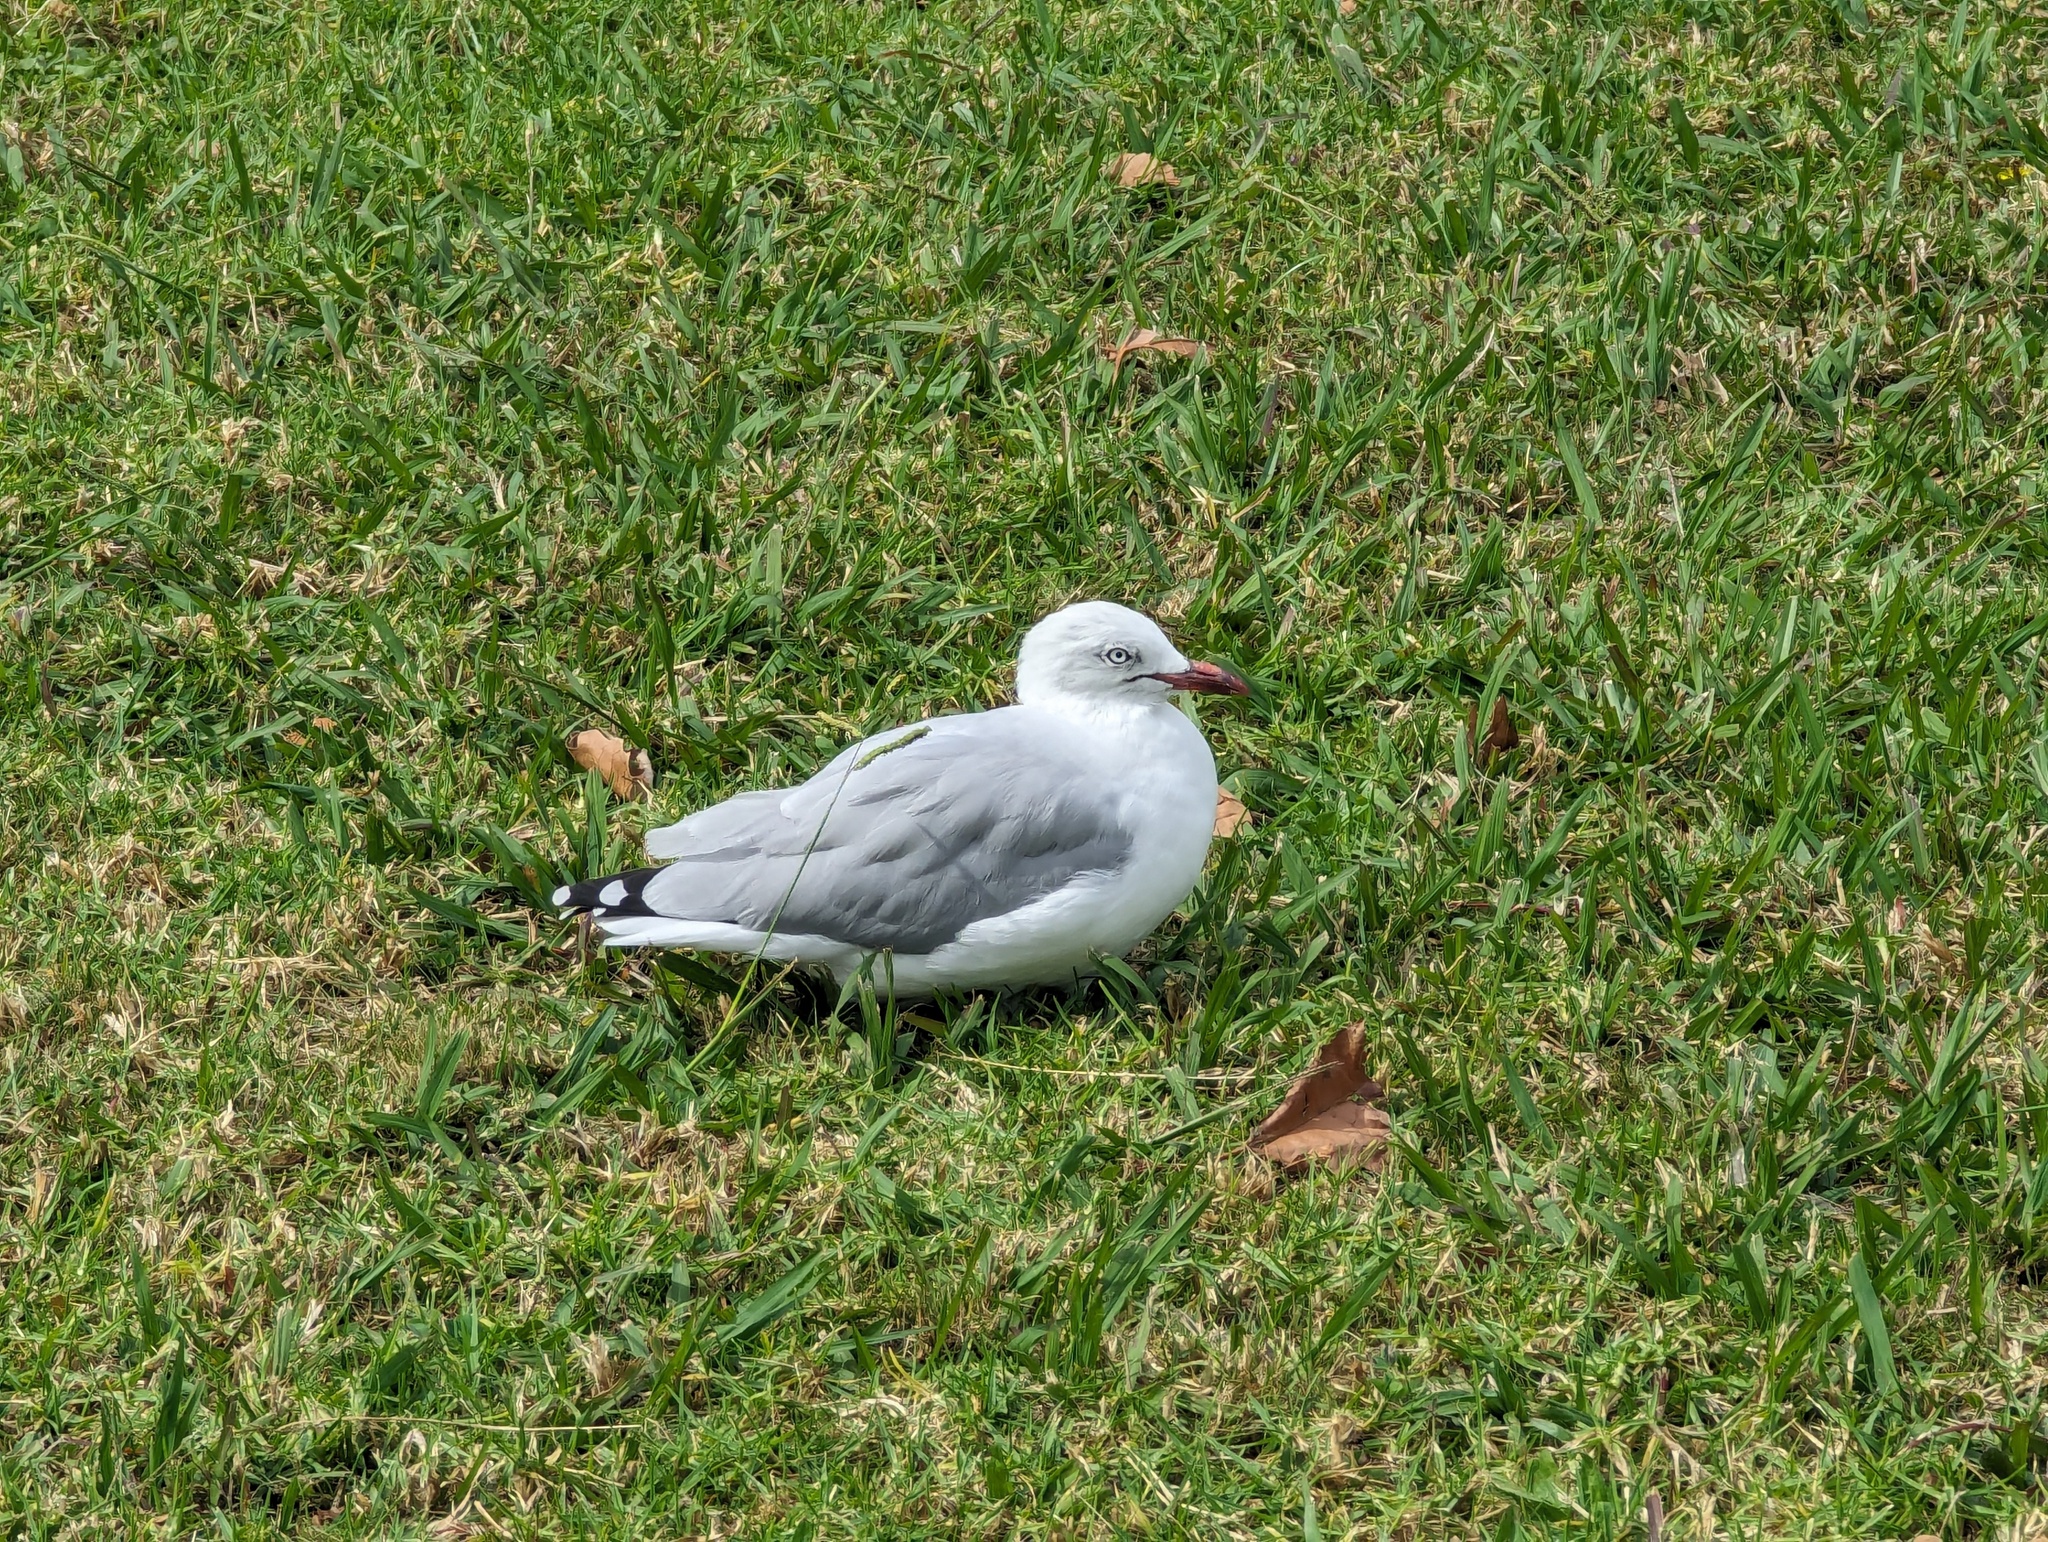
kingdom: Animalia
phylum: Chordata
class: Aves
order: Charadriiformes
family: Laridae
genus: Chroicocephalus
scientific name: Chroicocephalus novaehollandiae
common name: Silver gull
